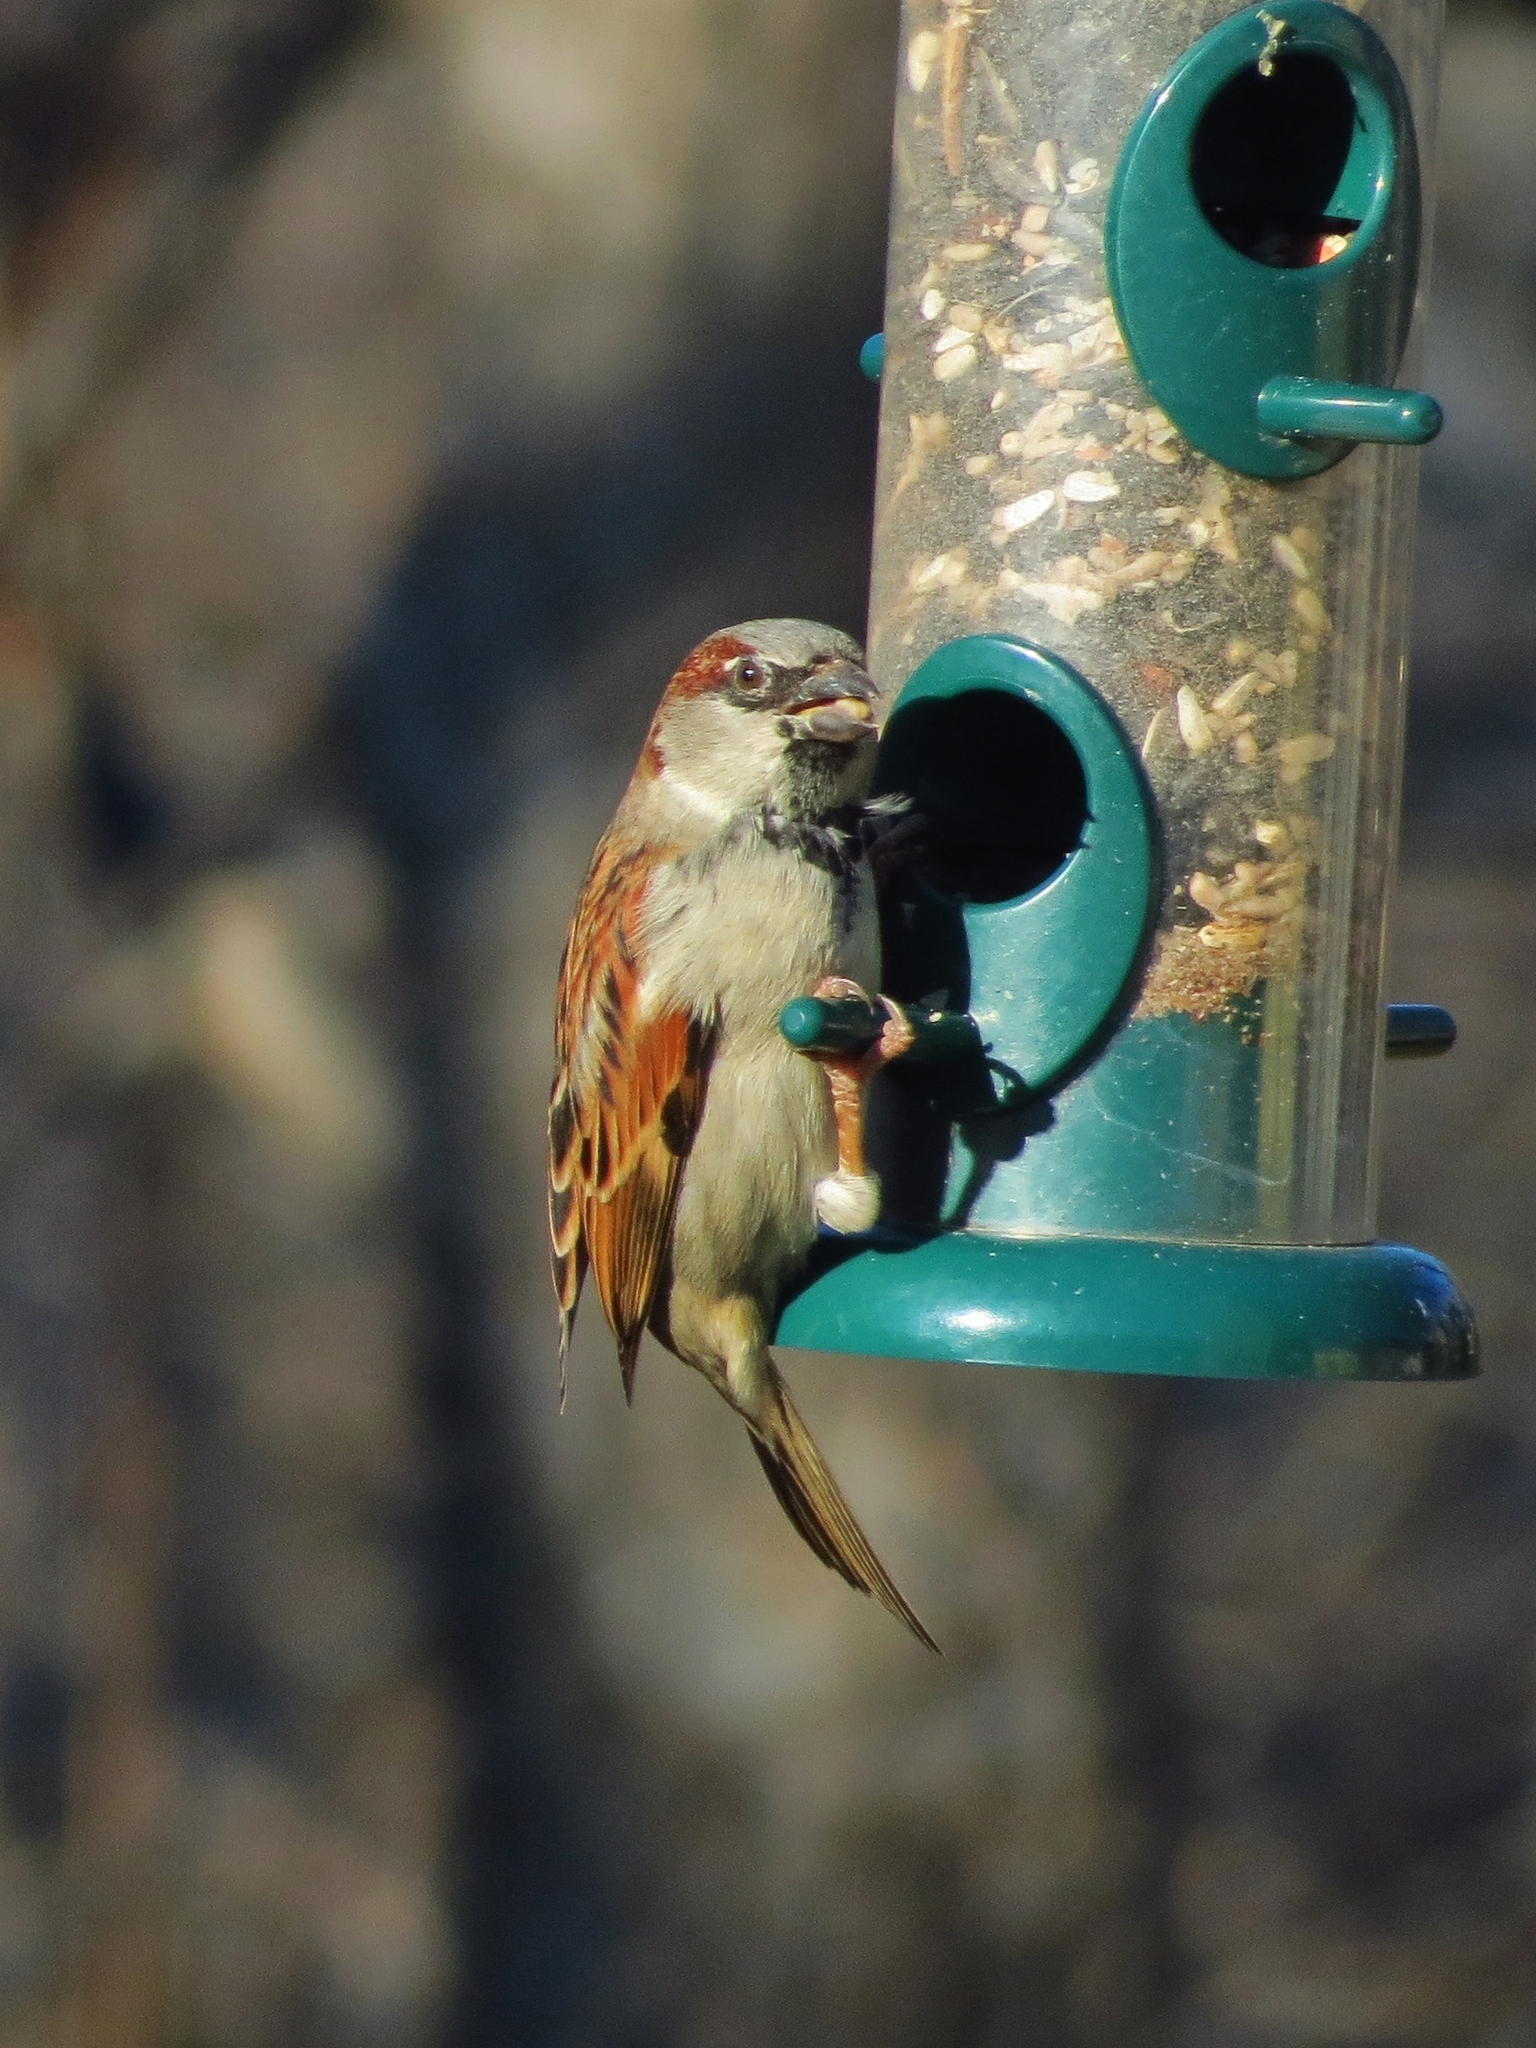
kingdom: Animalia
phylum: Chordata
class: Aves
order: Passeriformes
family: Passeridae
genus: Passer
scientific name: Passer domesticus
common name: House sparrow
